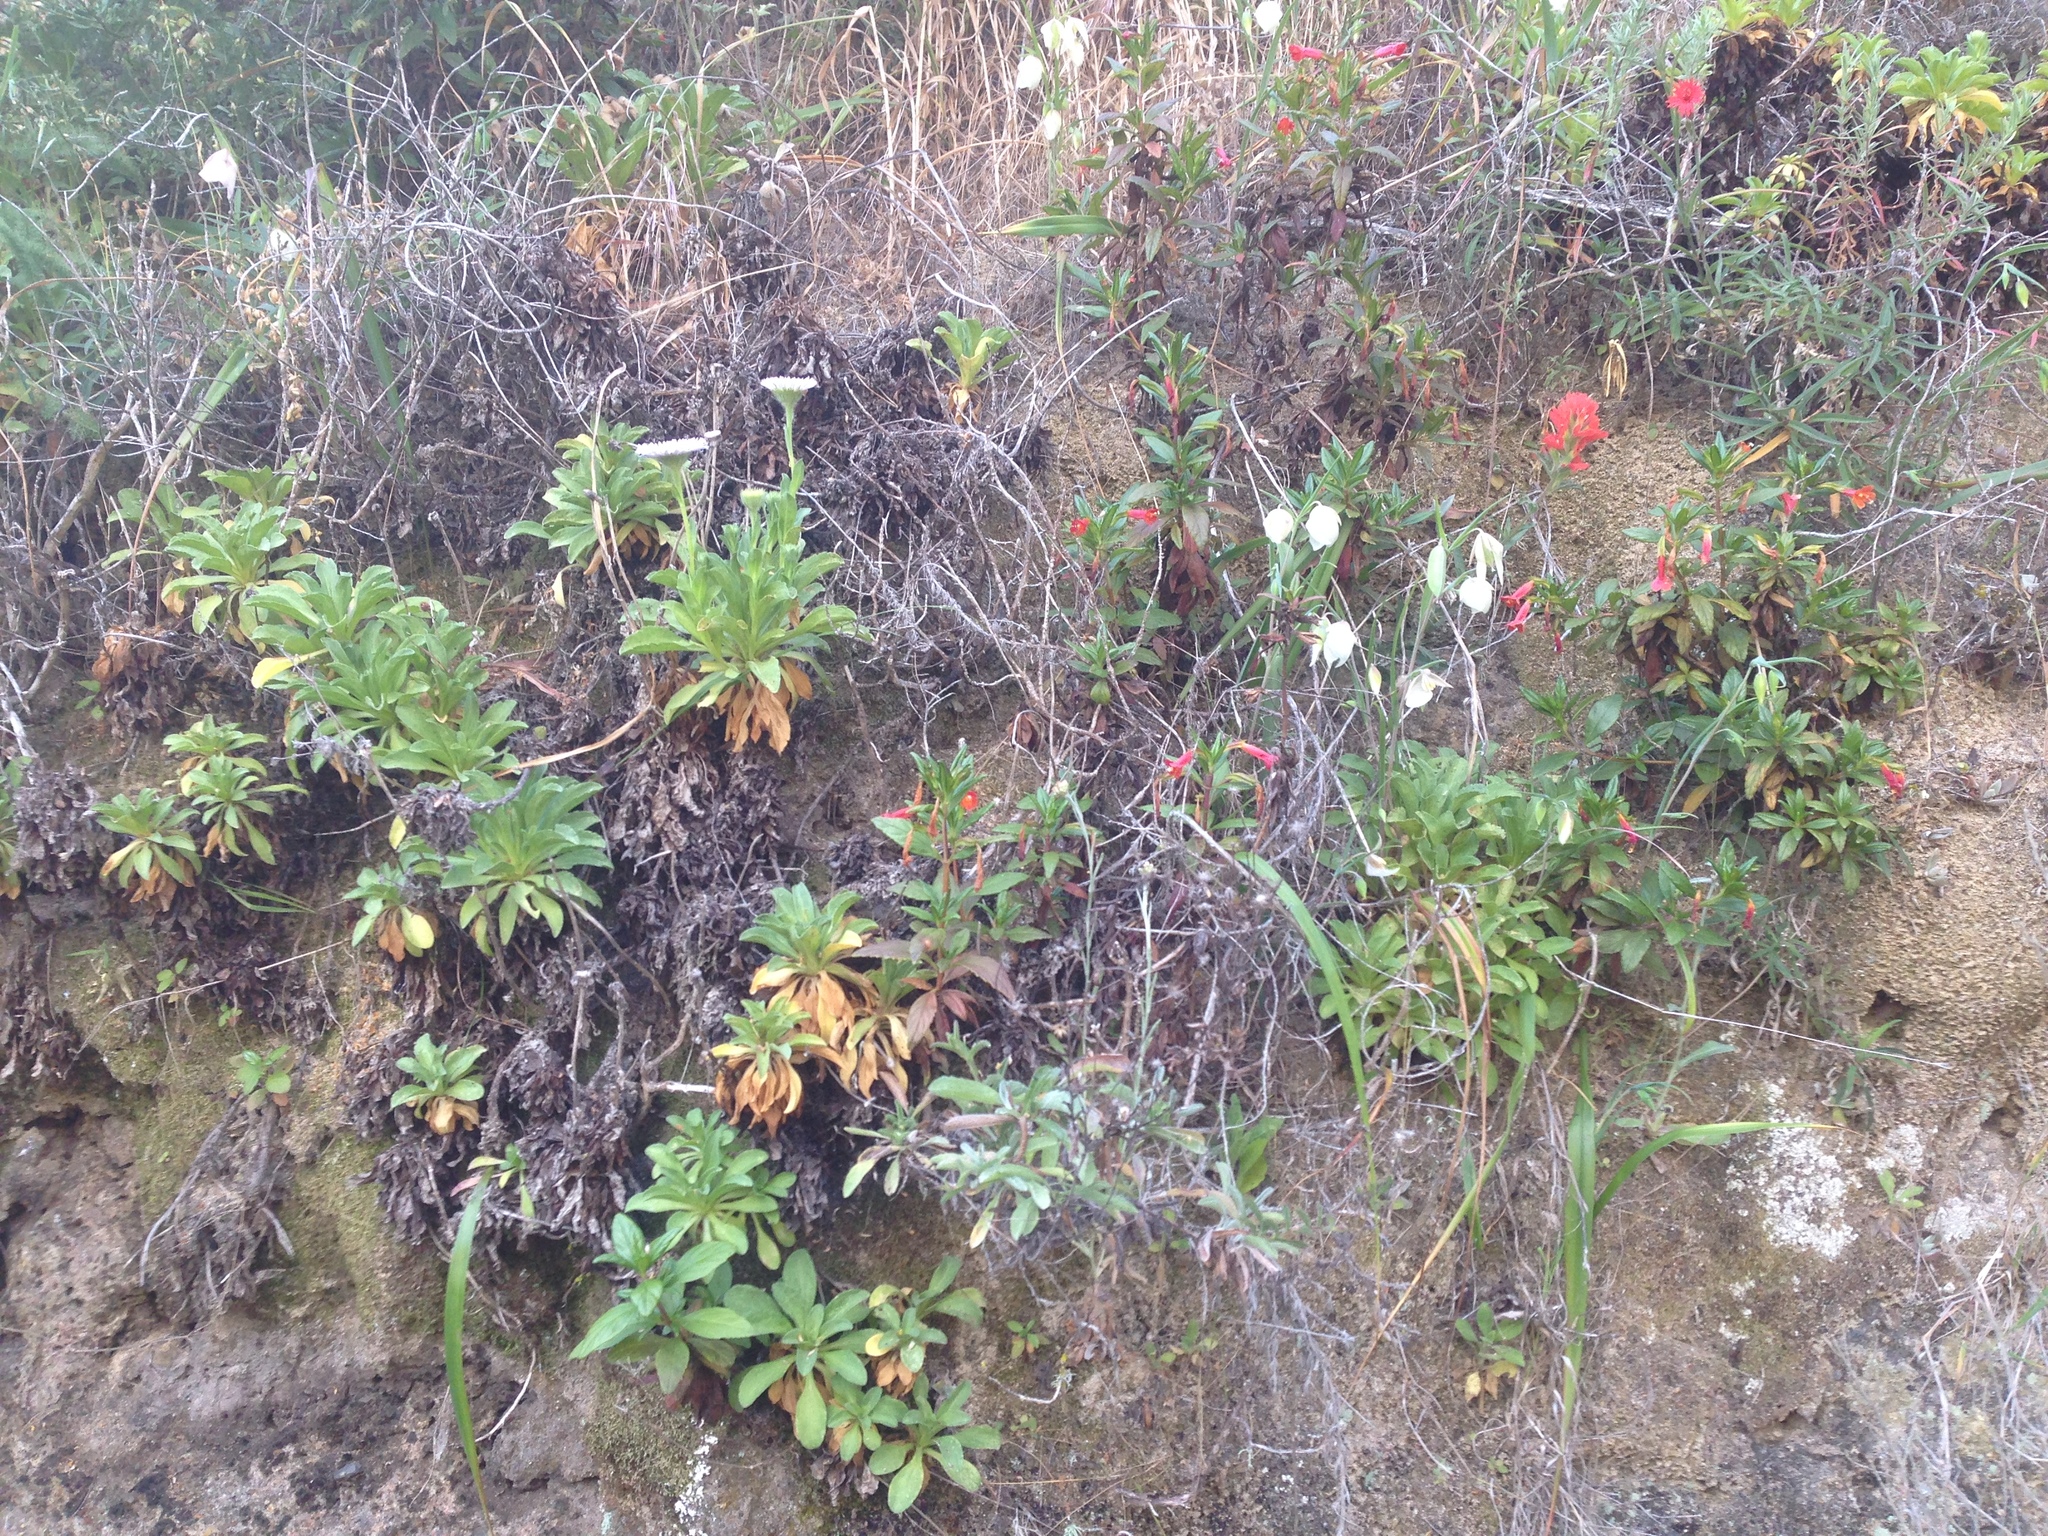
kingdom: Plantae
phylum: Tracheophyta
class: Magnoliopsida
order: Asterales
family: Asteraceae
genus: Erigeron
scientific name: Erigeron glaucus
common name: Seaside daisy
